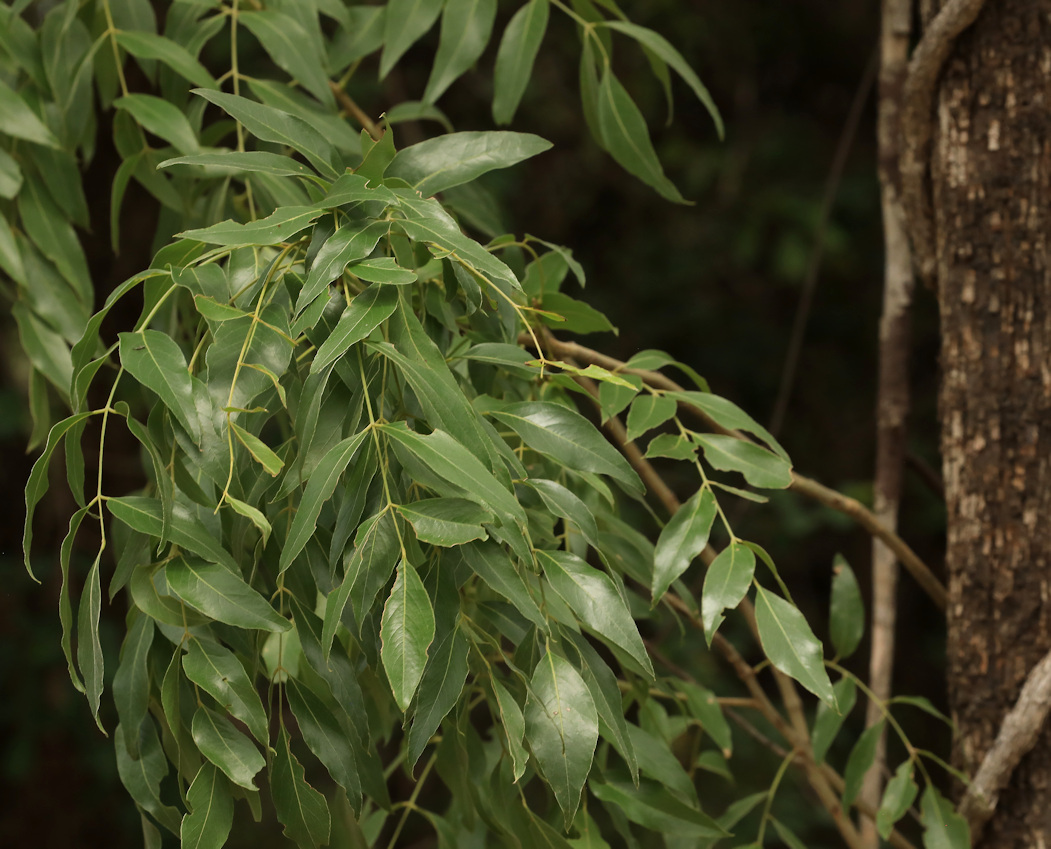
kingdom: Plantae
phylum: Tracheophyta
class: Magnoliopsida
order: Fabales
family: Fabaceae
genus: Bolusanthus
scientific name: Bolusanthus speciosus
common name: Tree wisteria
